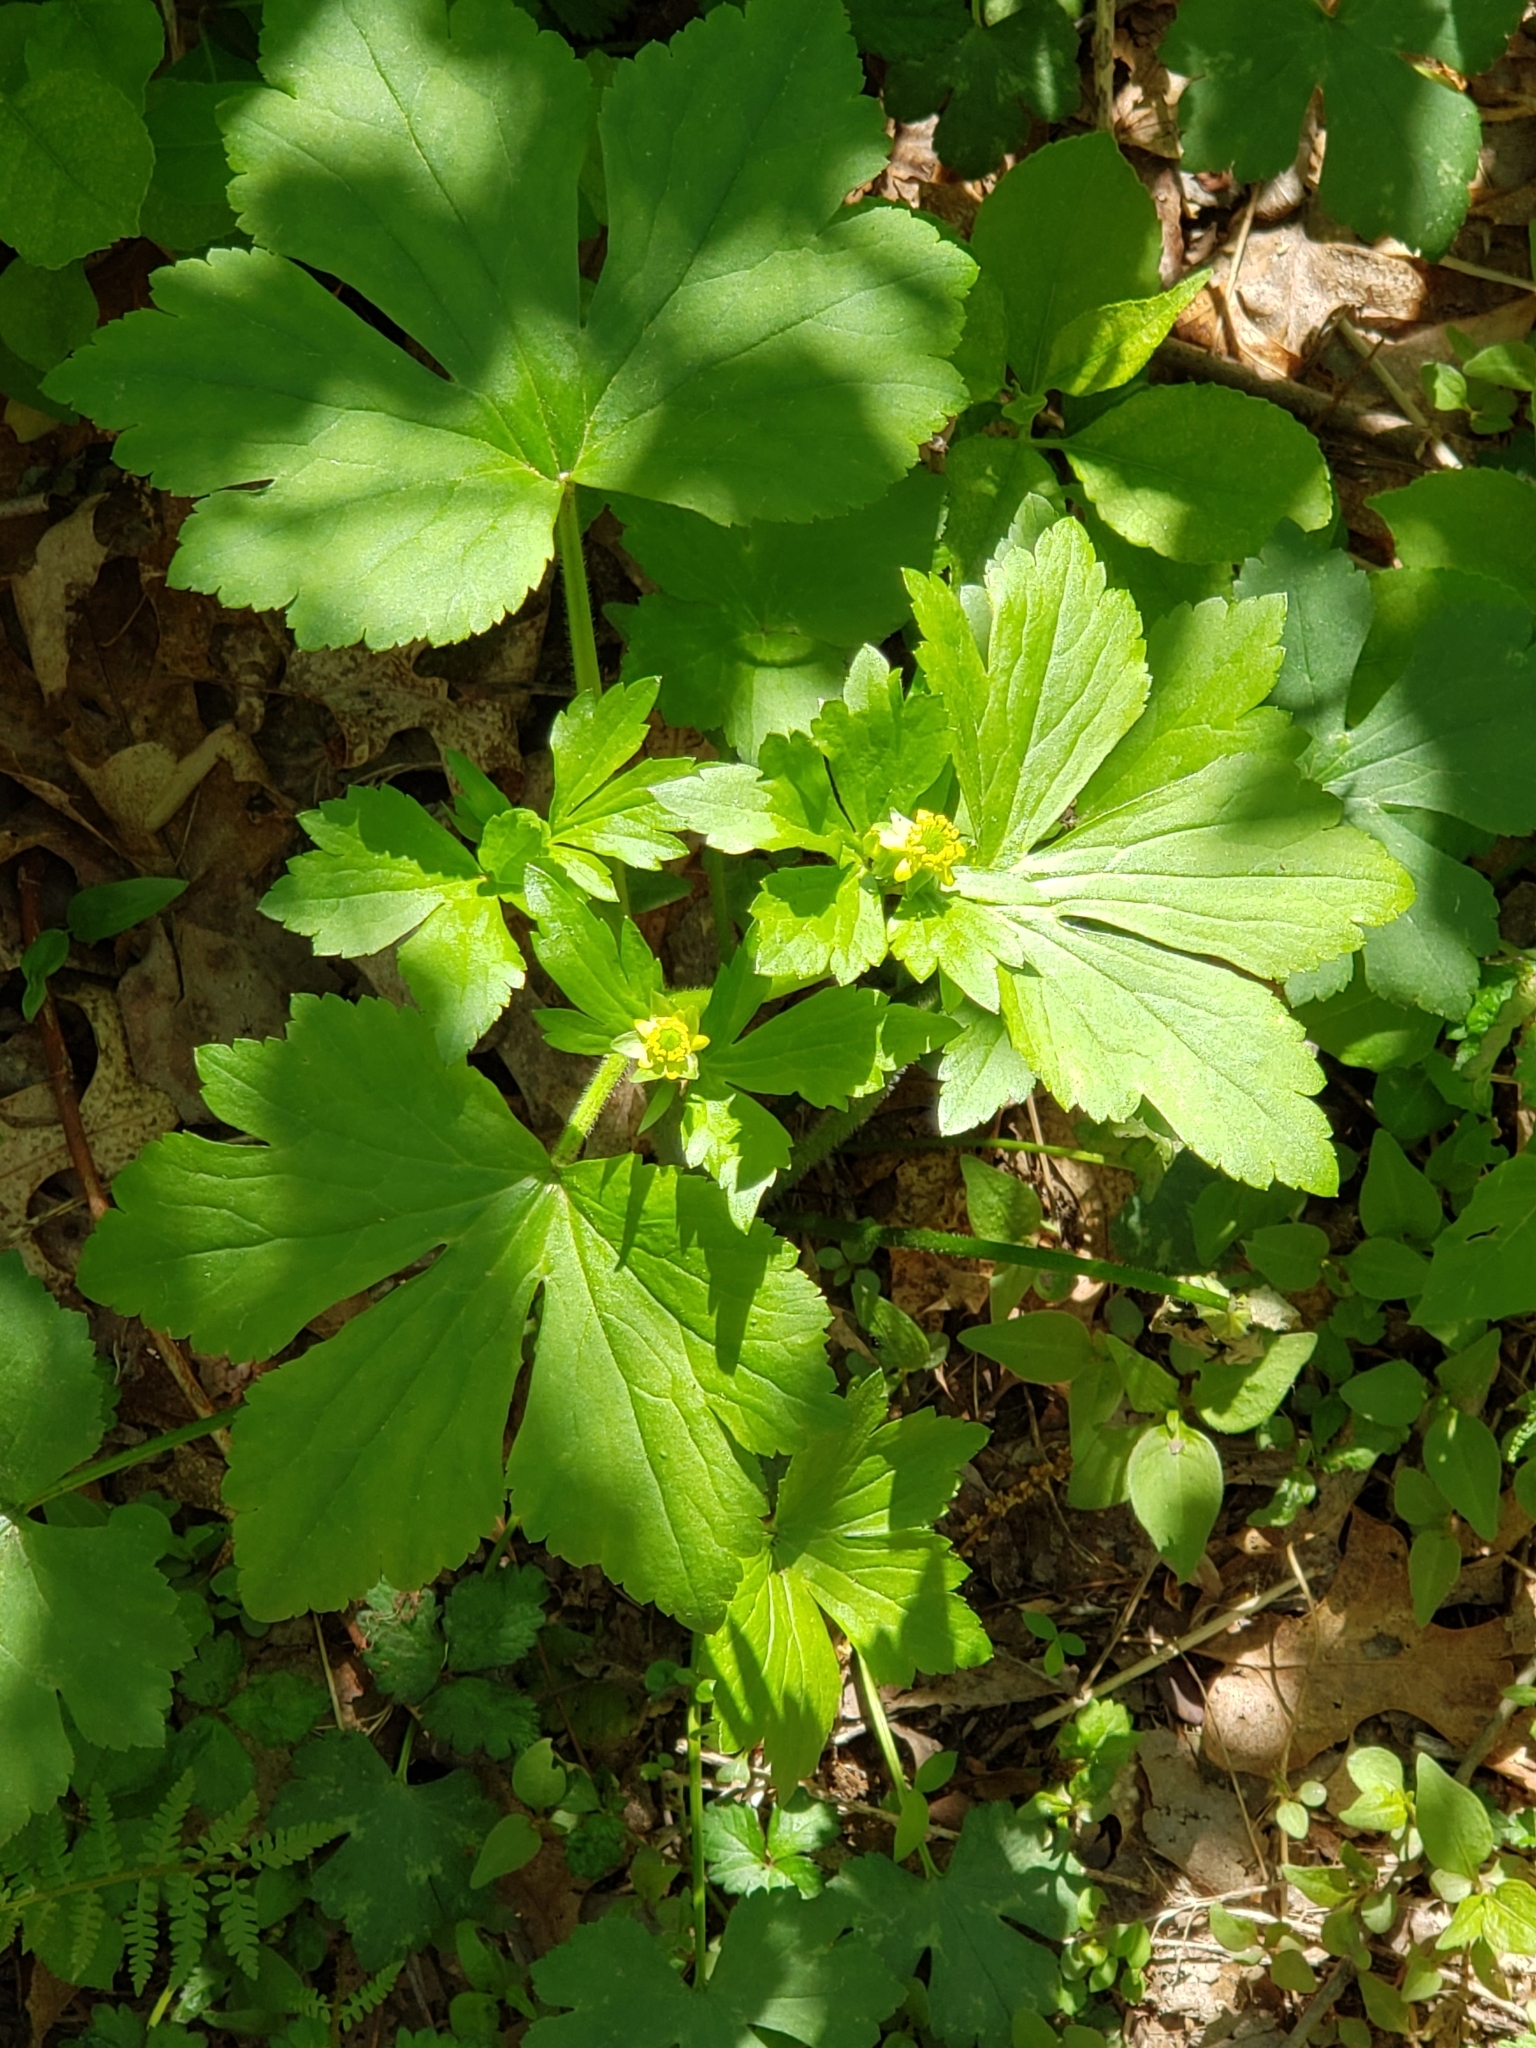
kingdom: Plantae
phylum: Tracheophyta
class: Magnoliopsida
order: Ranunculales
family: Ranunculaceae
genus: Ranunculus
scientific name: Ranunculus recurvatus
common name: Blisterwort
